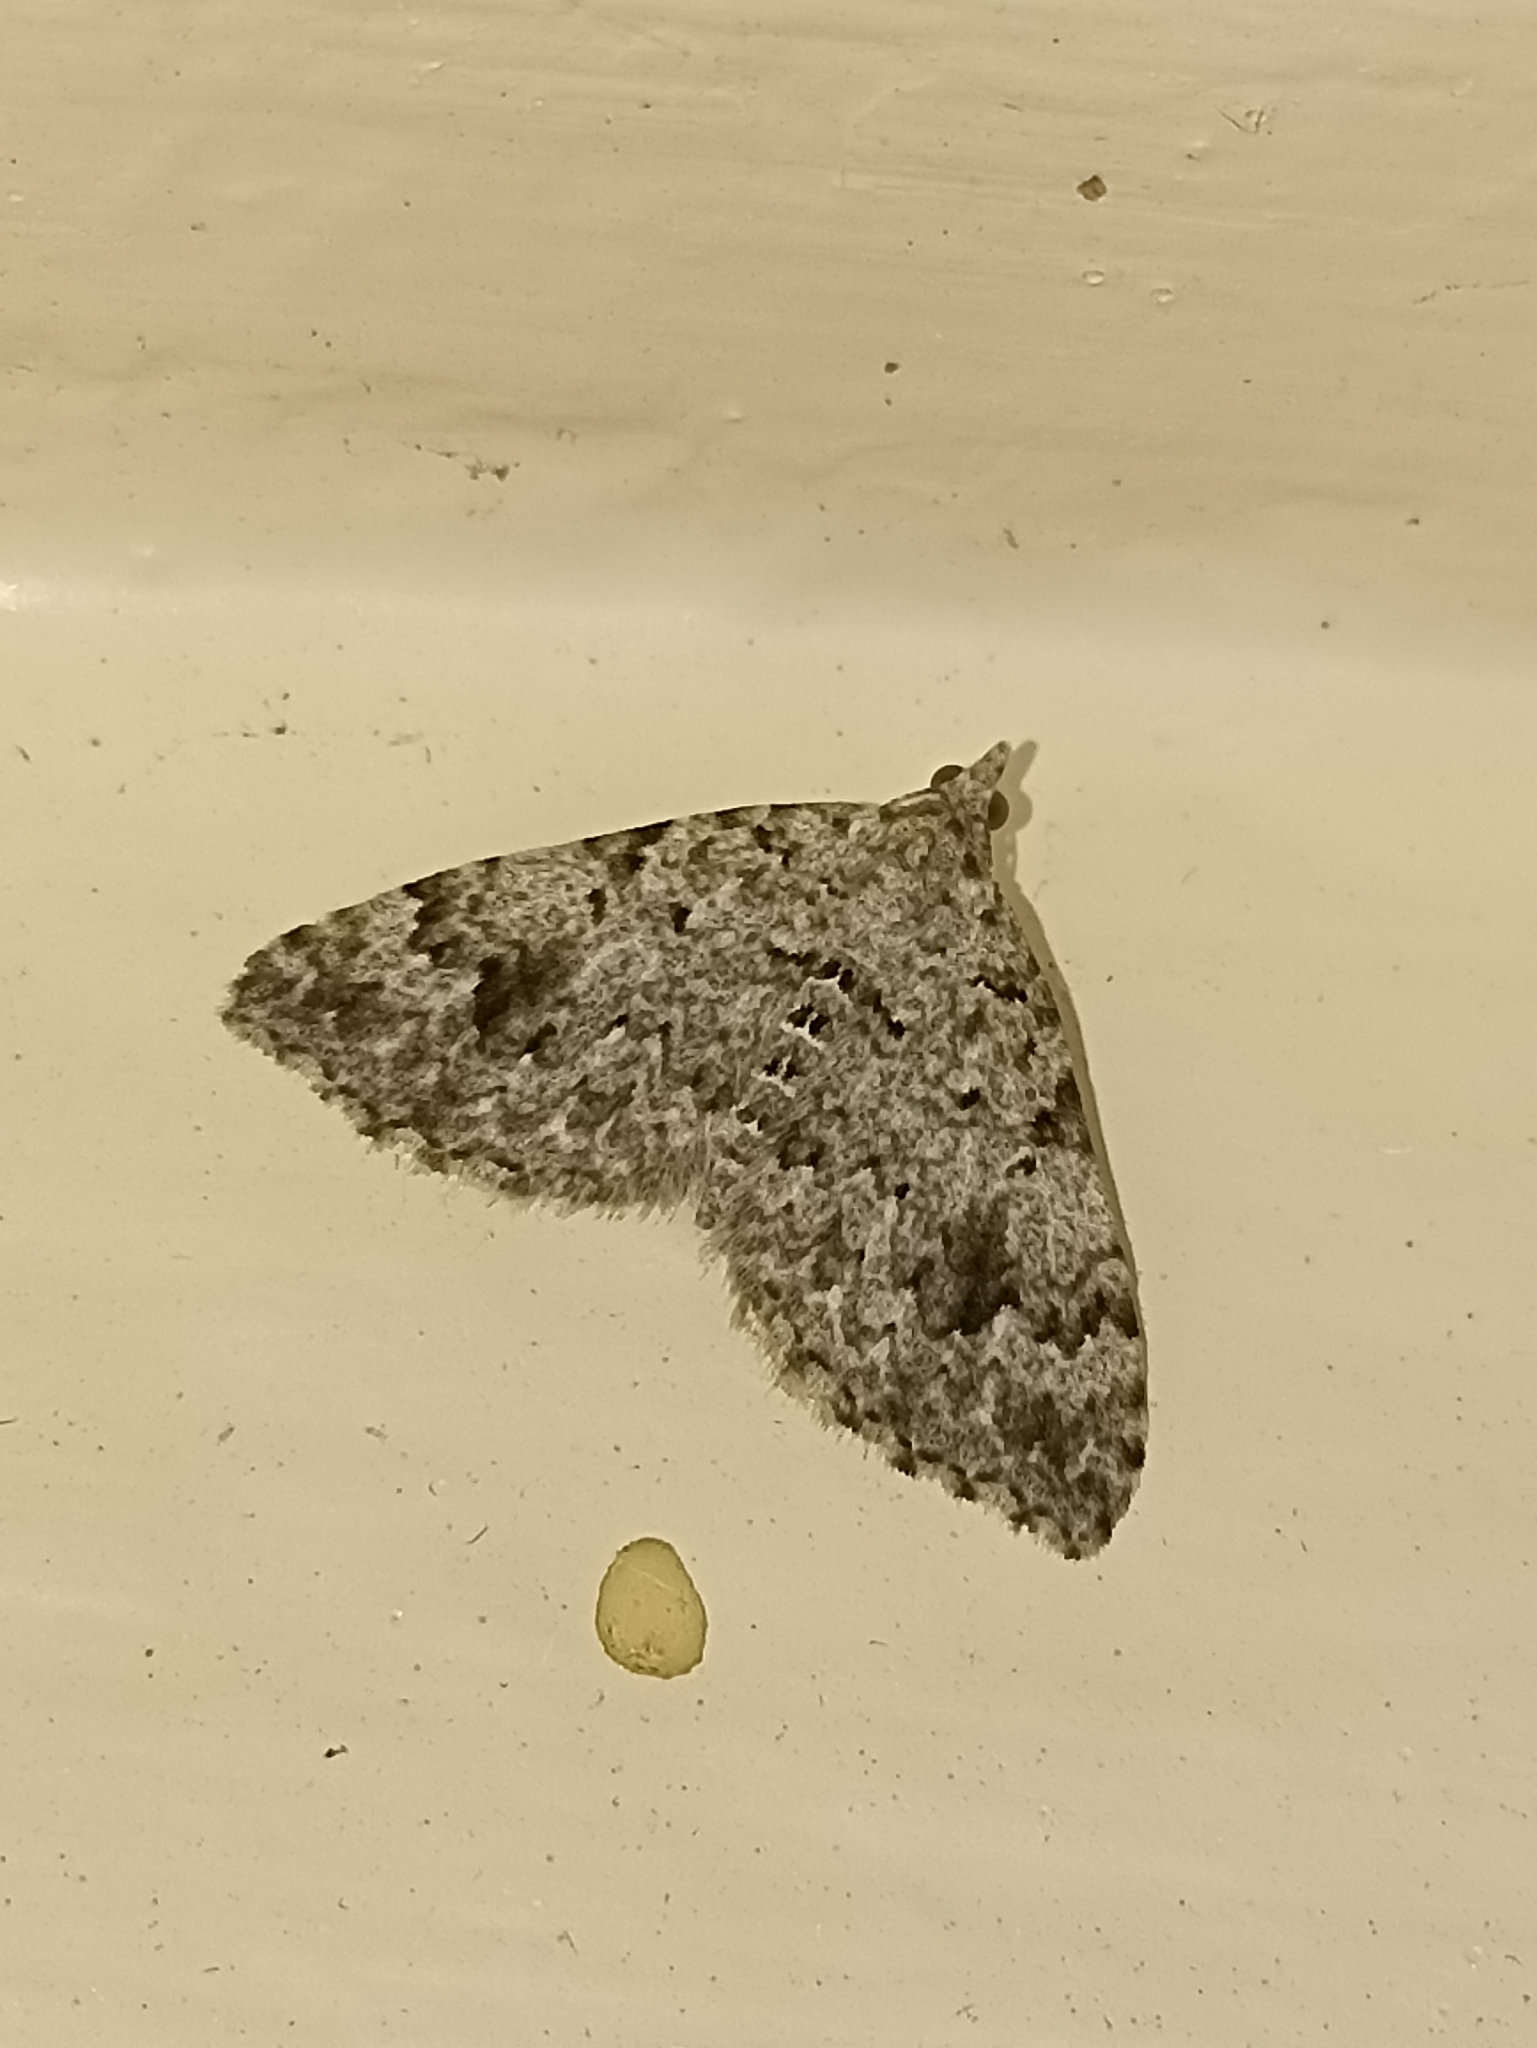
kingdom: Animalia
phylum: Arthropoda
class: Insecta
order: Lepidoptera
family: Geometridae
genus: Helastia
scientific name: Helastia cinerearia
